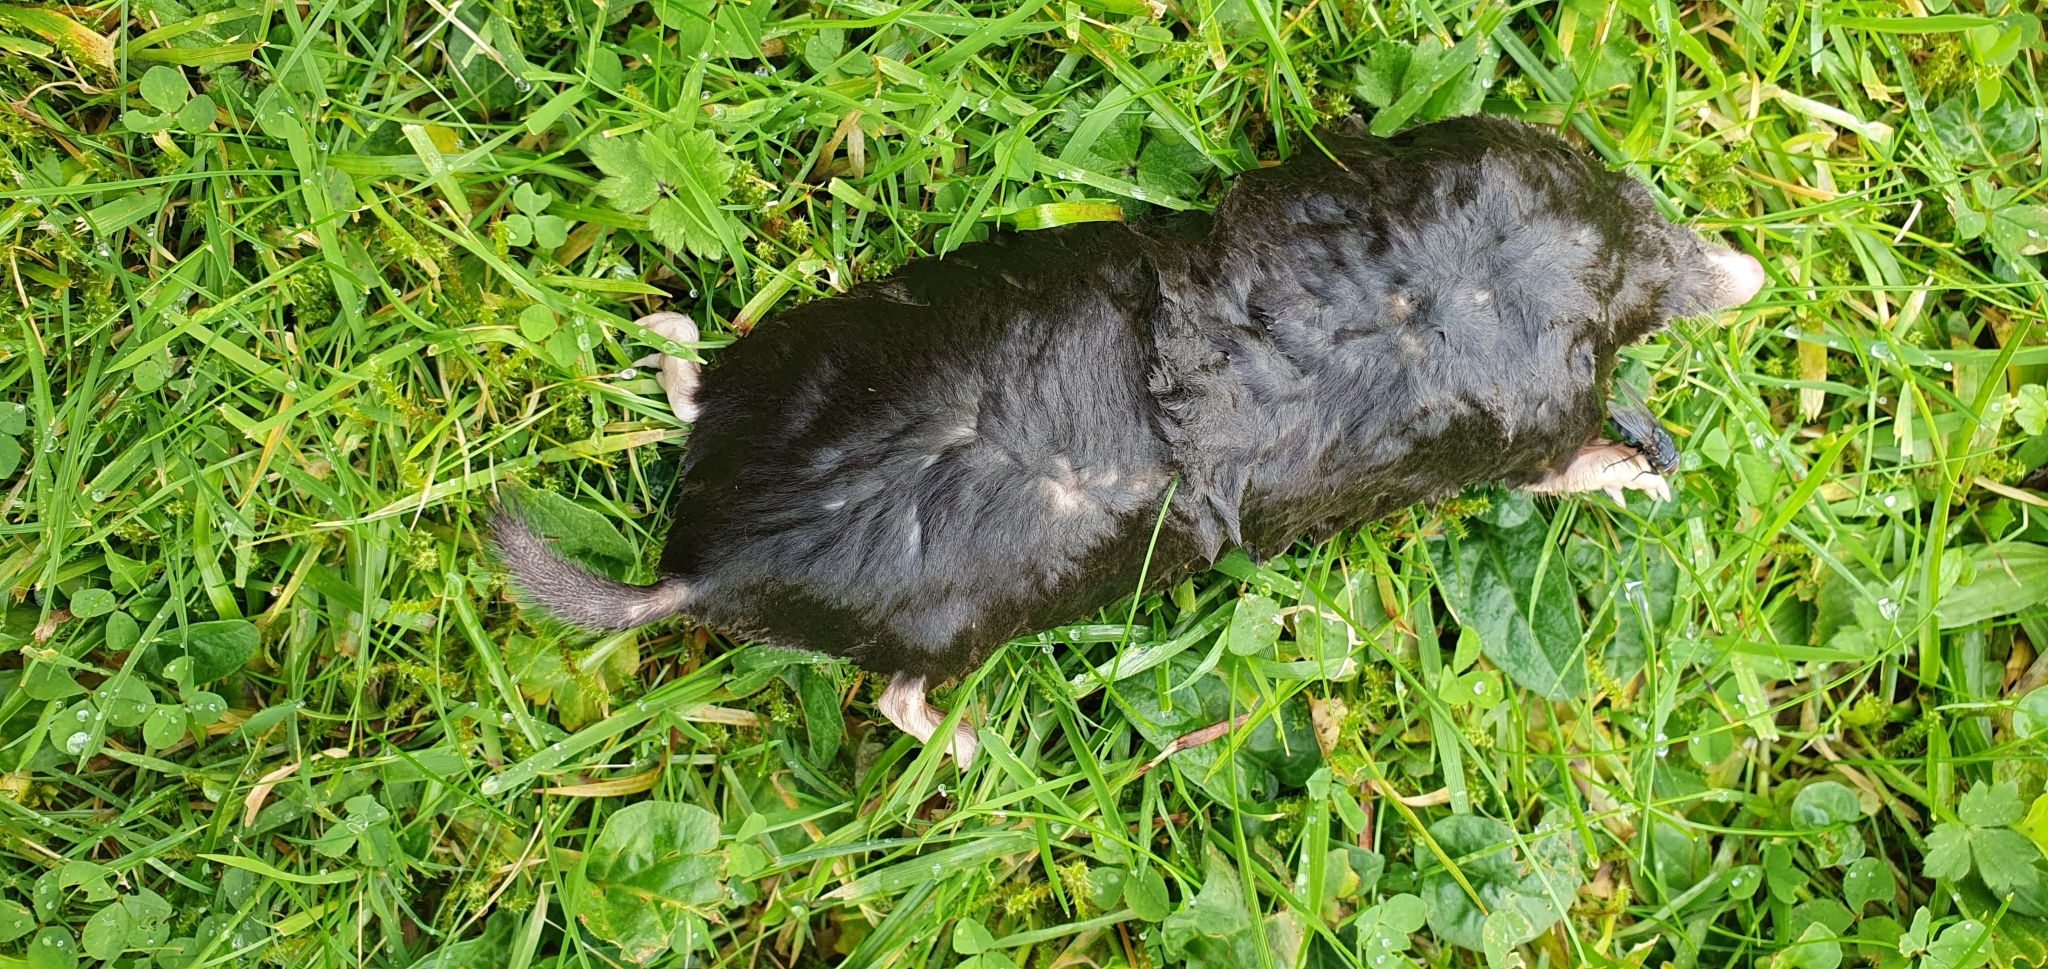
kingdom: Animalia
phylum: Chordata
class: Mammalia
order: Soricomorpha
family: Talpidae
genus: Talpa
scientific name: Talpa europaea
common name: European mole
